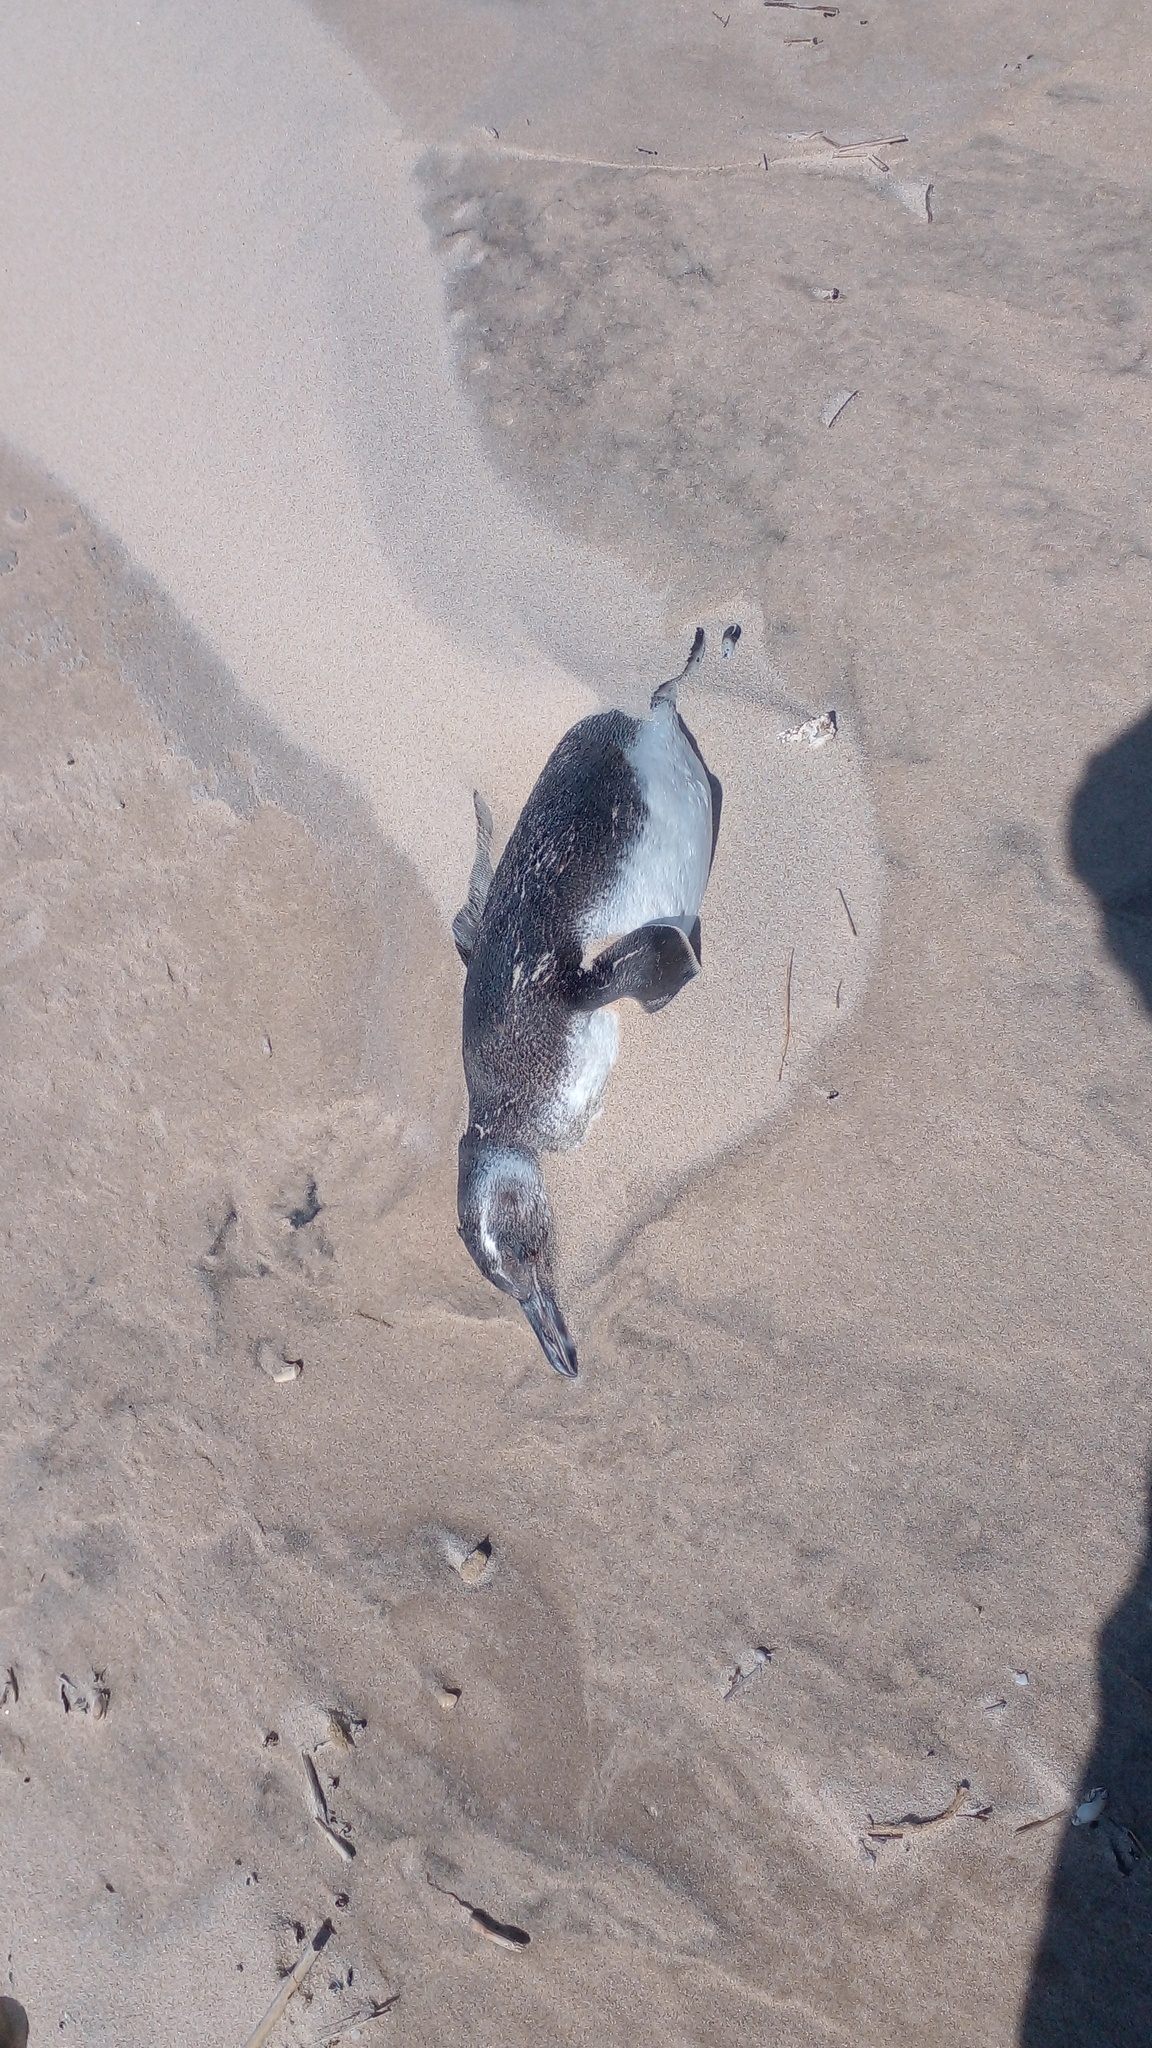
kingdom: Animalia
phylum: Chordata
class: Aves
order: Sphenisciformes
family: Spheniscidae
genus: Spheniscus
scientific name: Spheniscus magellanicus
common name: Magellanic penguin
